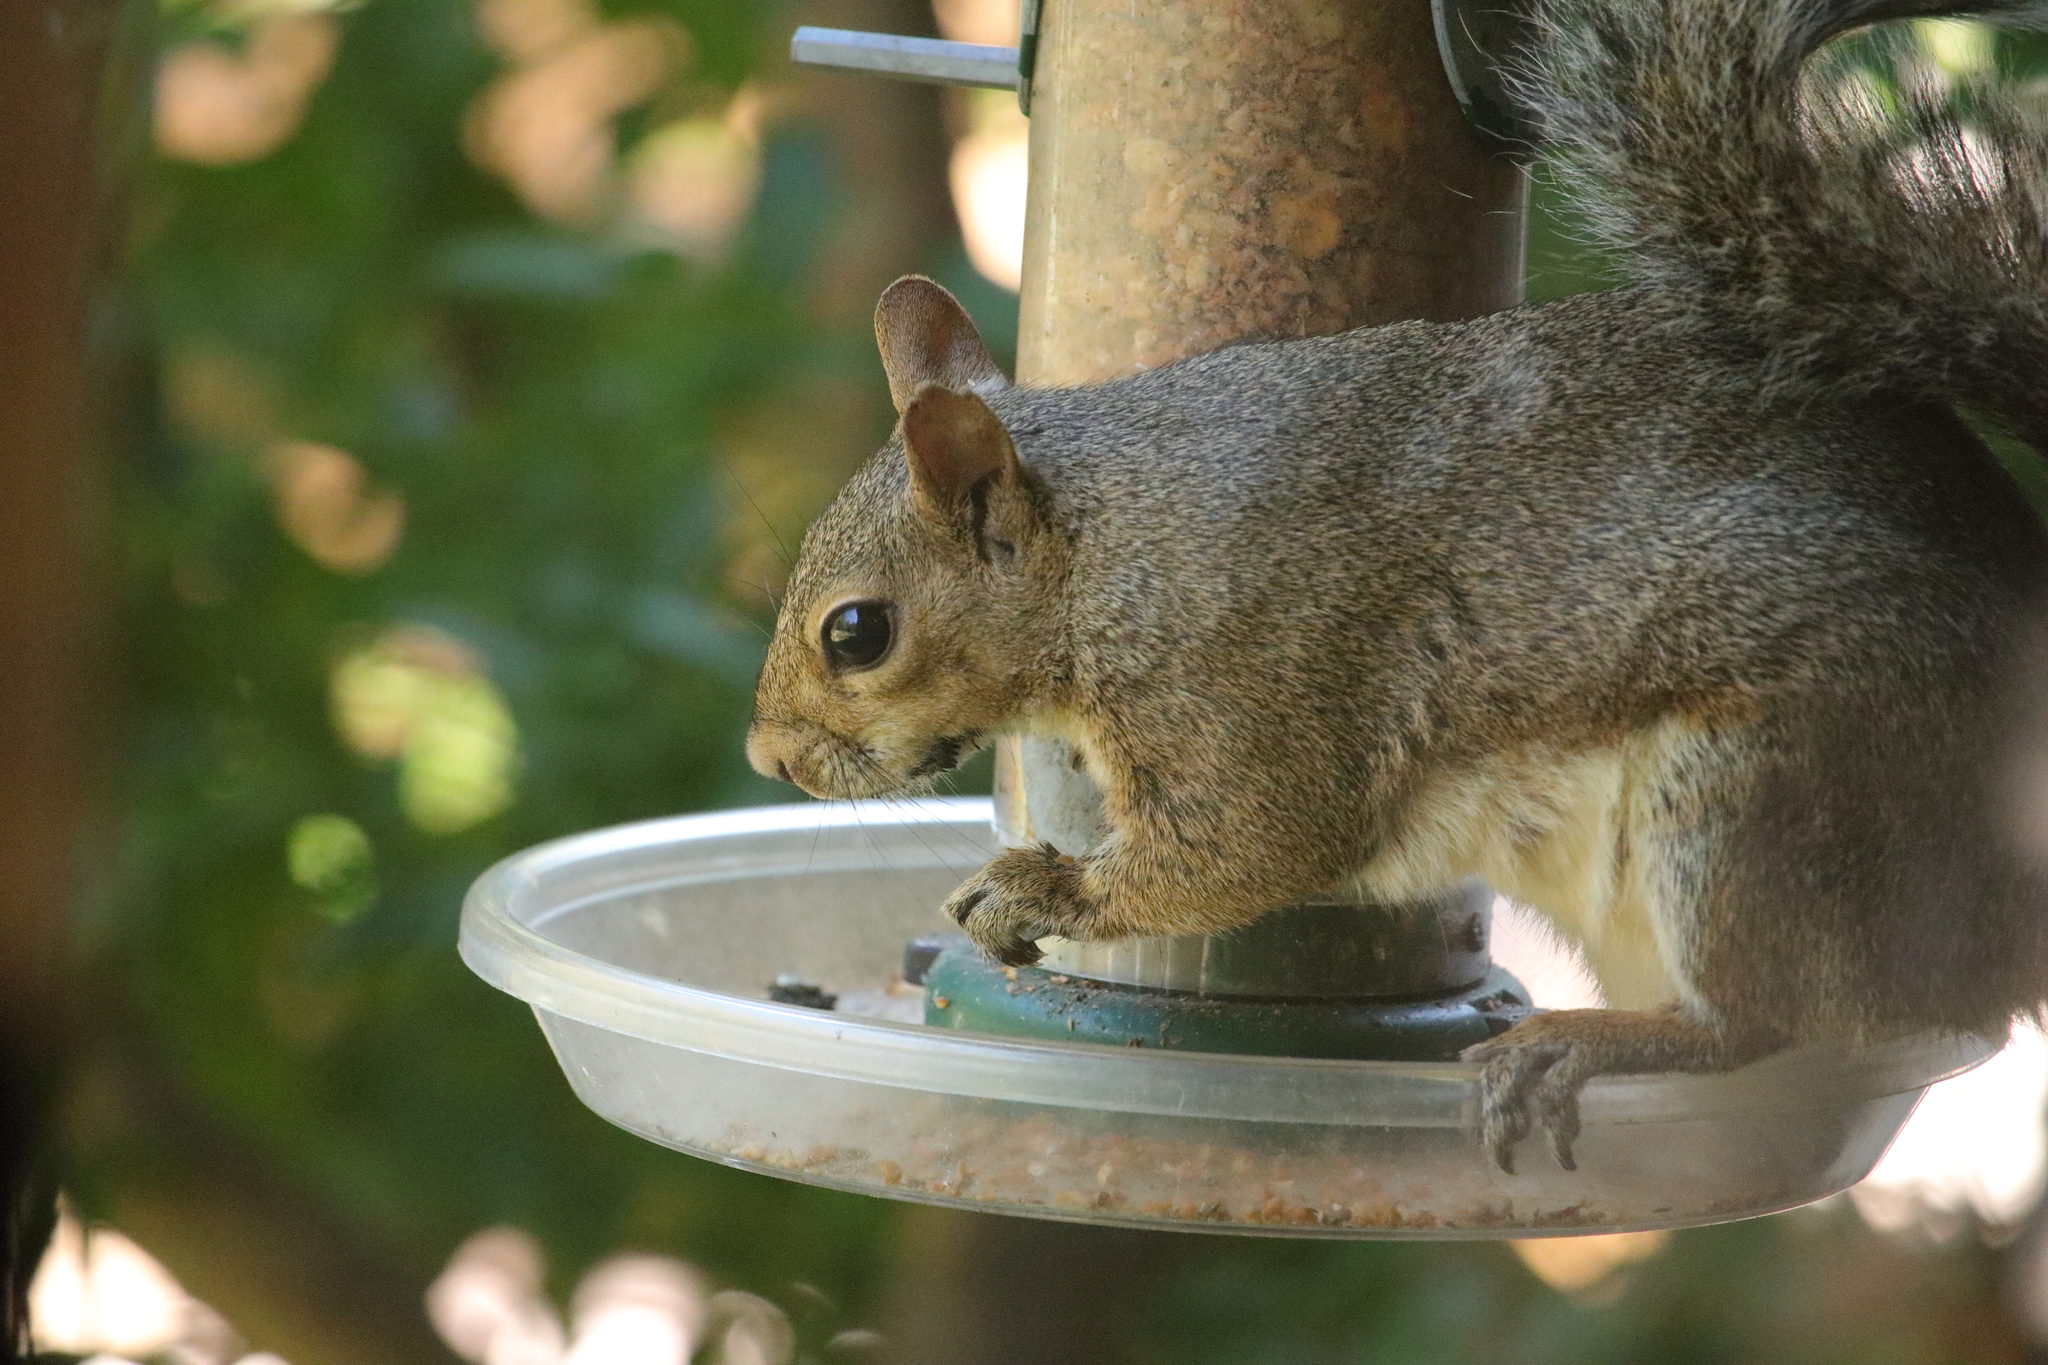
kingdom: Animalia
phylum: Chordata
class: Mammalia
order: Rodentia
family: Sciuridae
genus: Sciurus
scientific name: Sciurus carolinensis
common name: Eastern gray squirrel
